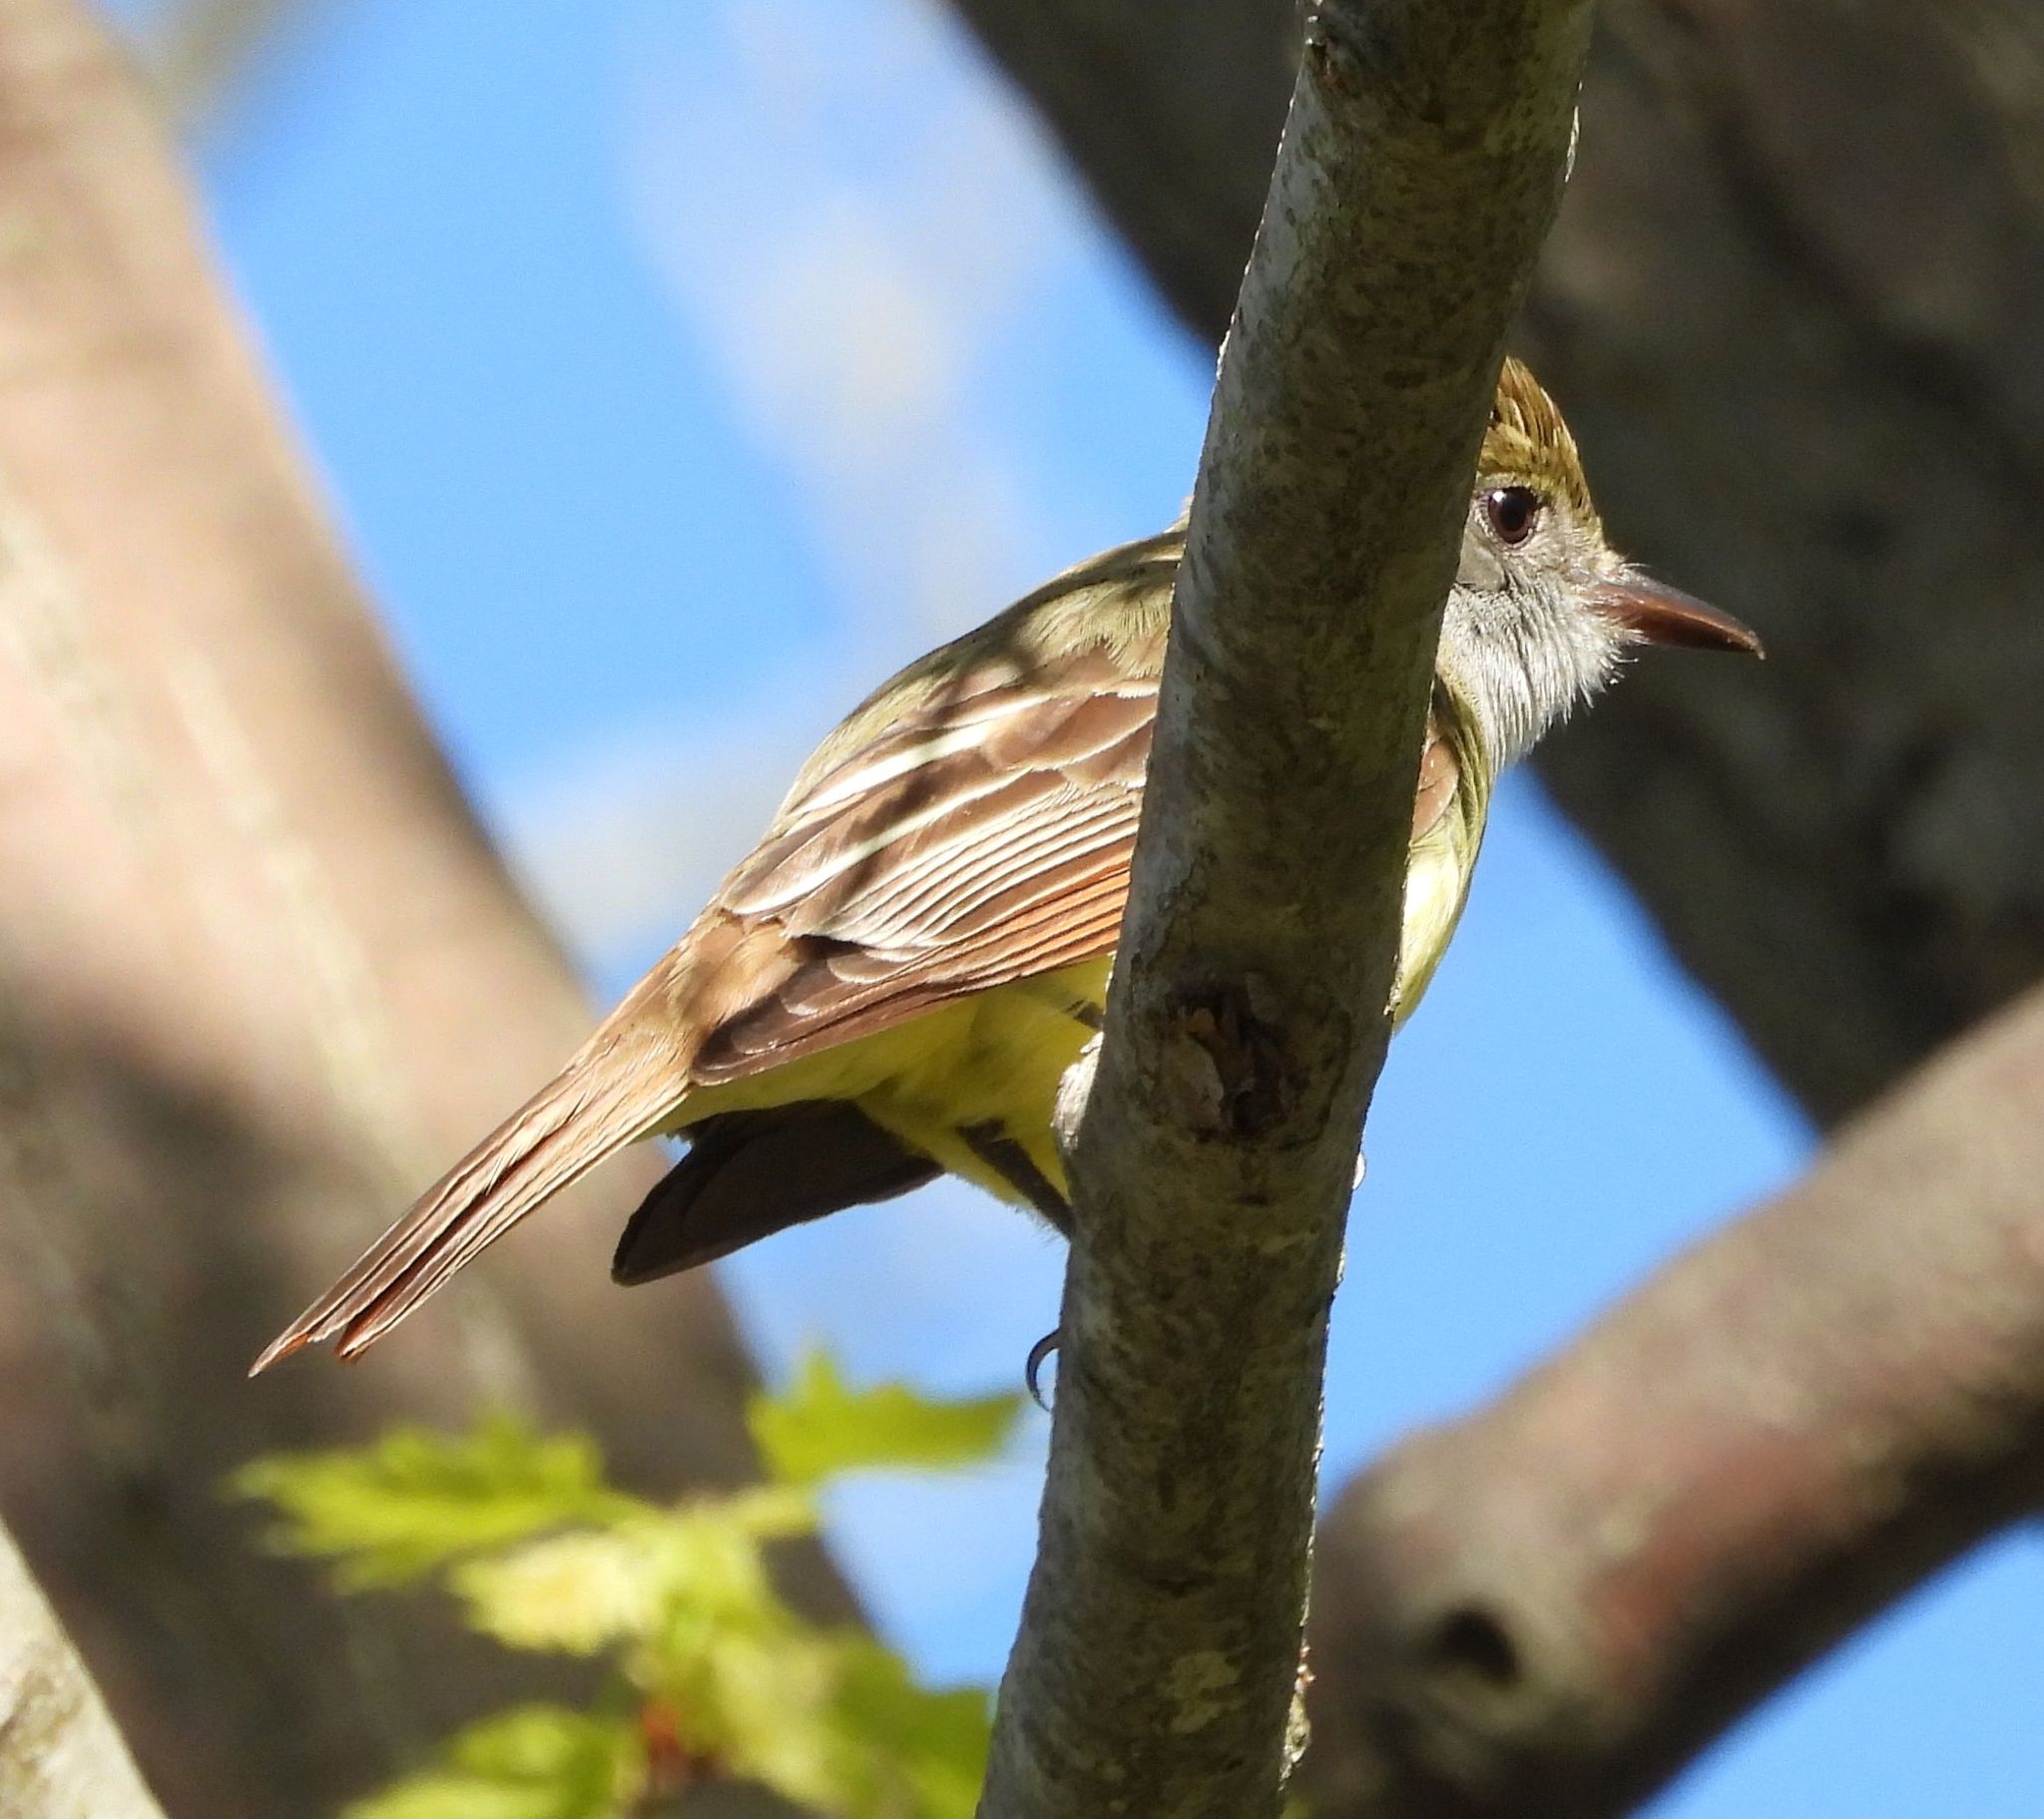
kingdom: Animalia
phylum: Chordata
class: Aves
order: Passeriformes
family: Tyrannidae
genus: Myiarchus
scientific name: Myiarchus crinitus
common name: Great crested flycatcher
